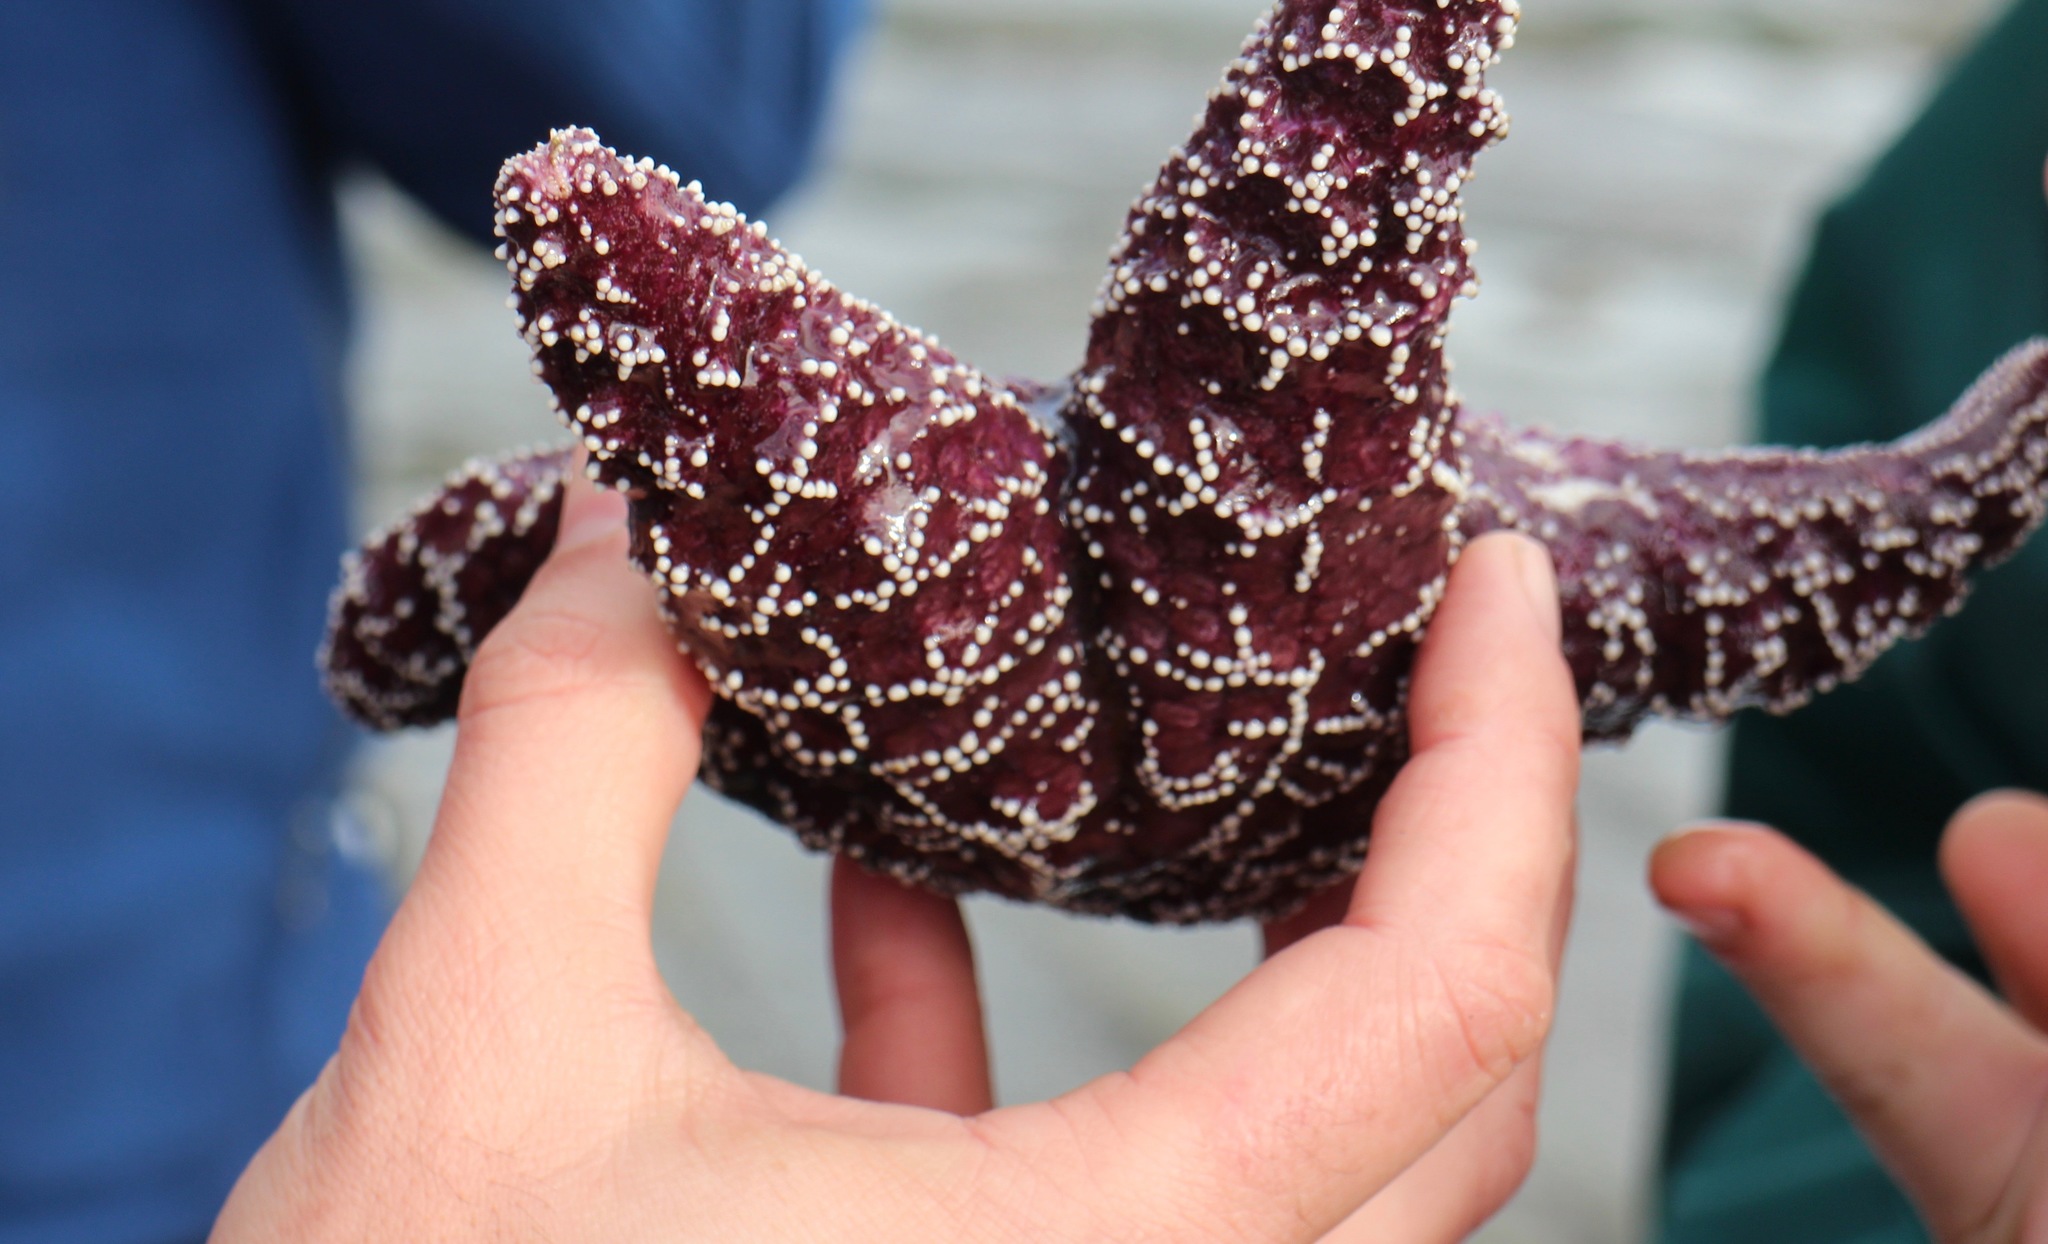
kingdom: Animalia
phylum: Echinodermata
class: Asteroidea
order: Forcipulatida
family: Asteriidae
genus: Pisaster
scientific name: Pisaster ochraceus
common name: Ochre stars
